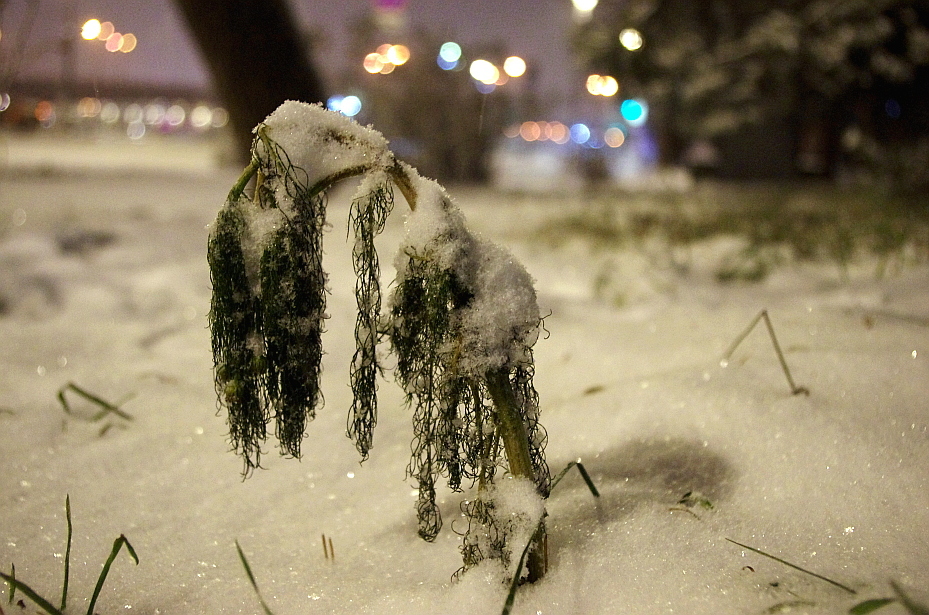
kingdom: Plantae
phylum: Tracheophyta
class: Magnoliopsida
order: Asterales
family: Asteraceae
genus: Tripleurospermum
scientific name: Tripleurospermum inodorum
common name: Scentless mayweed
